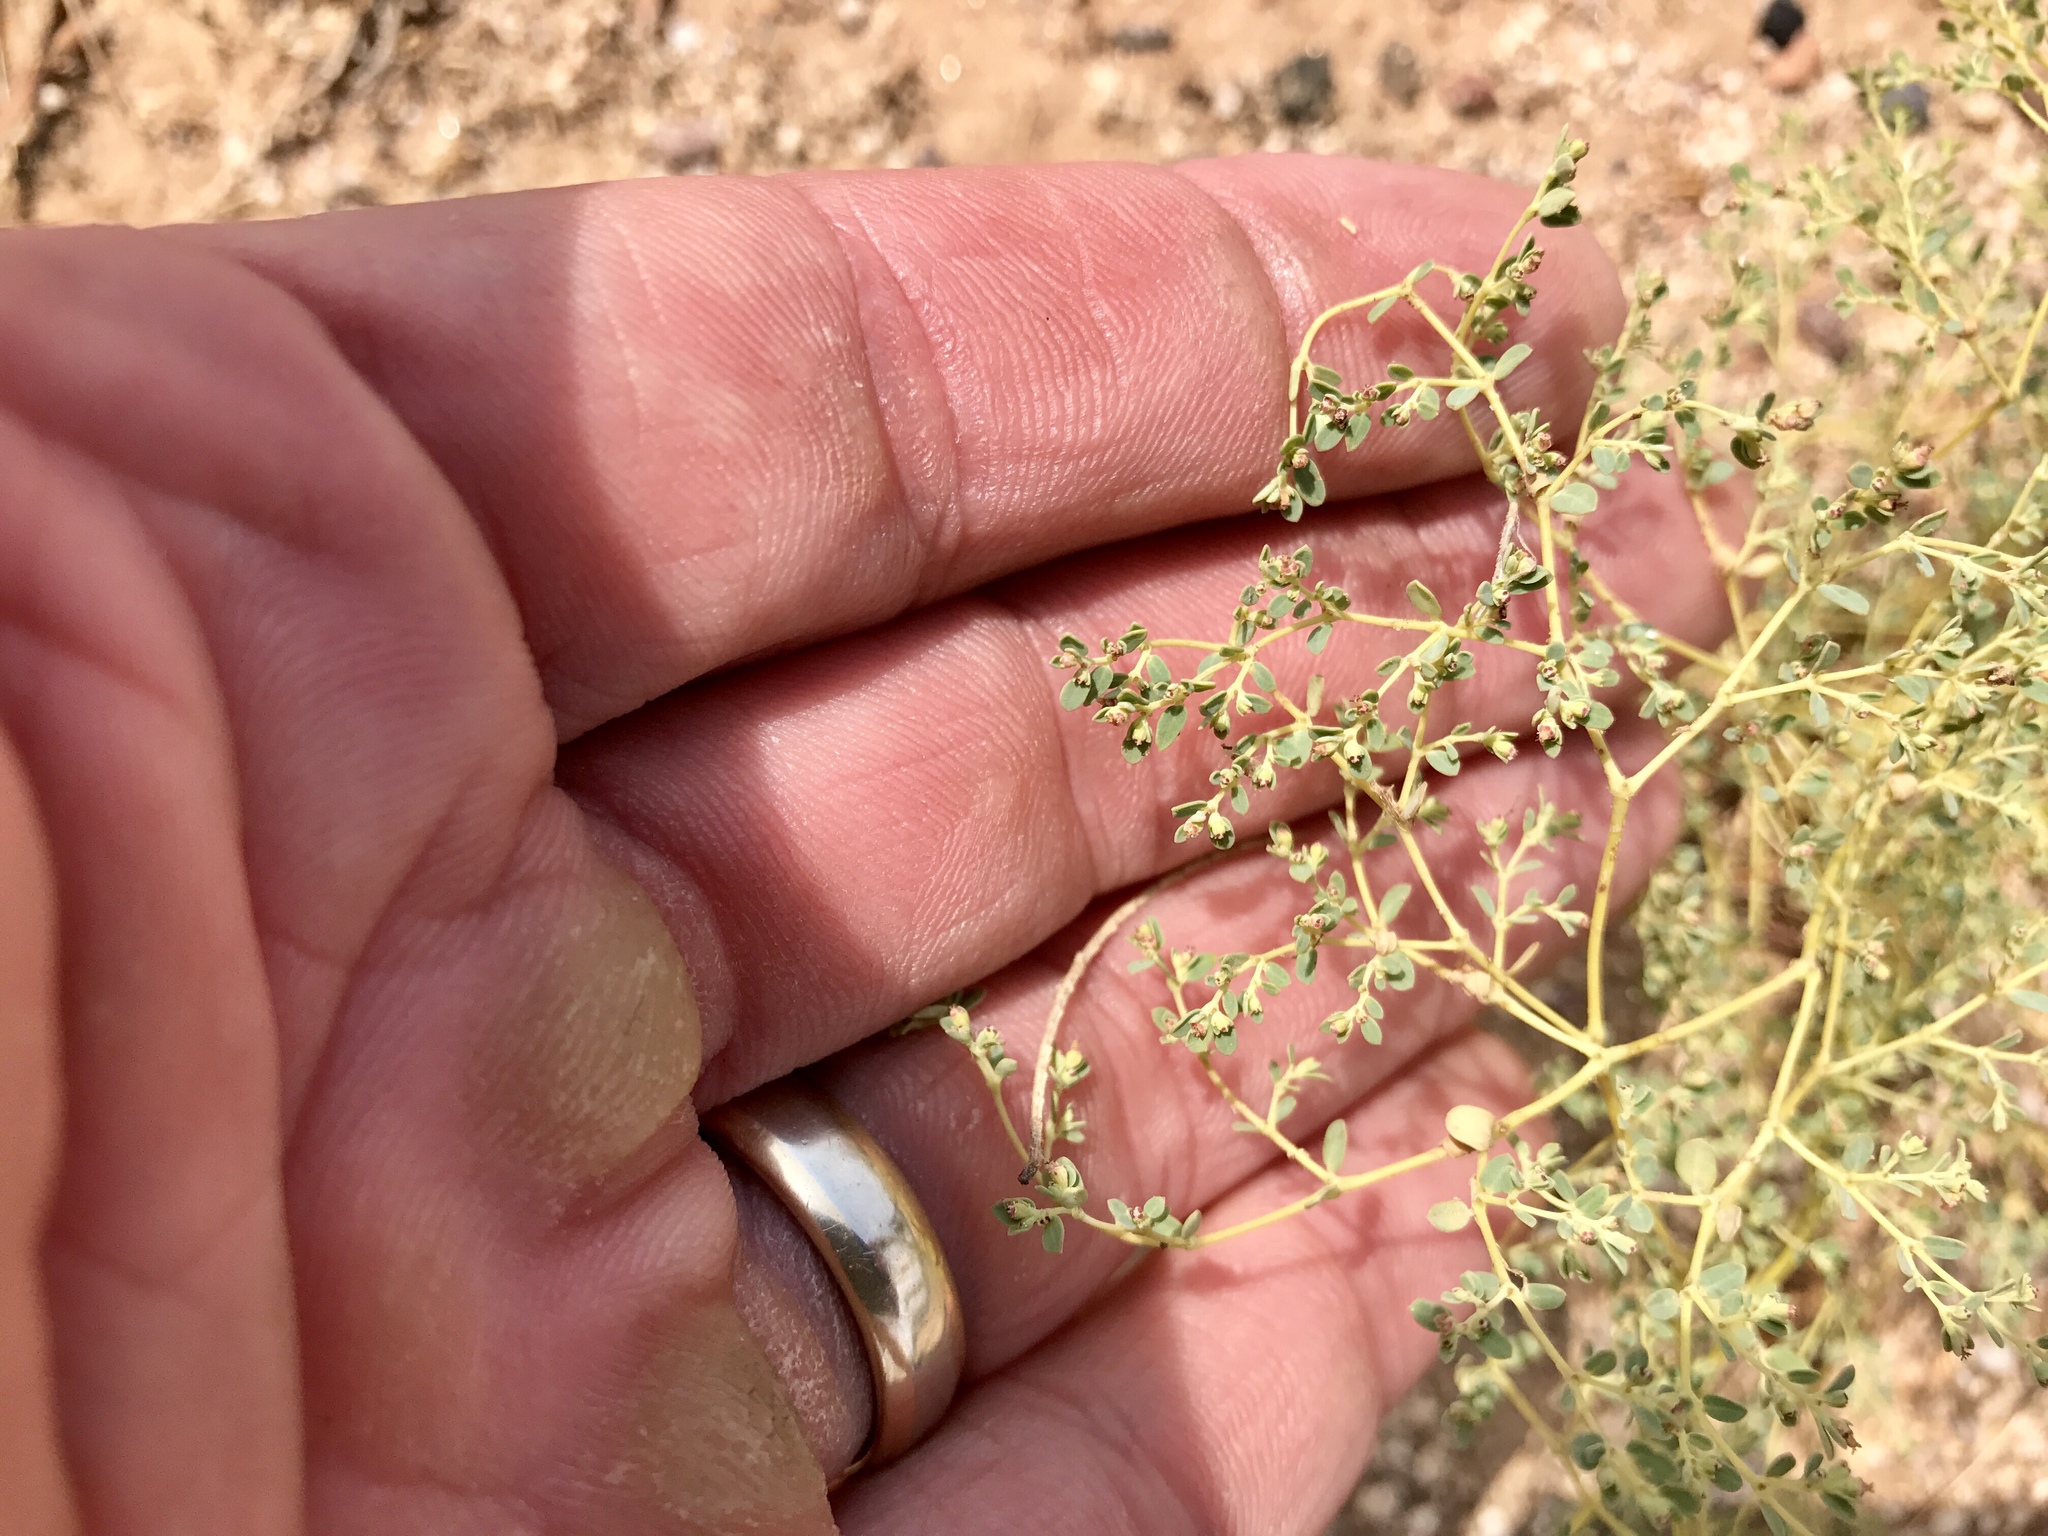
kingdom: Plantae
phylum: Tracheophyta
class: Magnoliopsida
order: Malpighiales
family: Euphorbiaceae
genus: Euphorbia
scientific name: Euphorbia polycarpa
